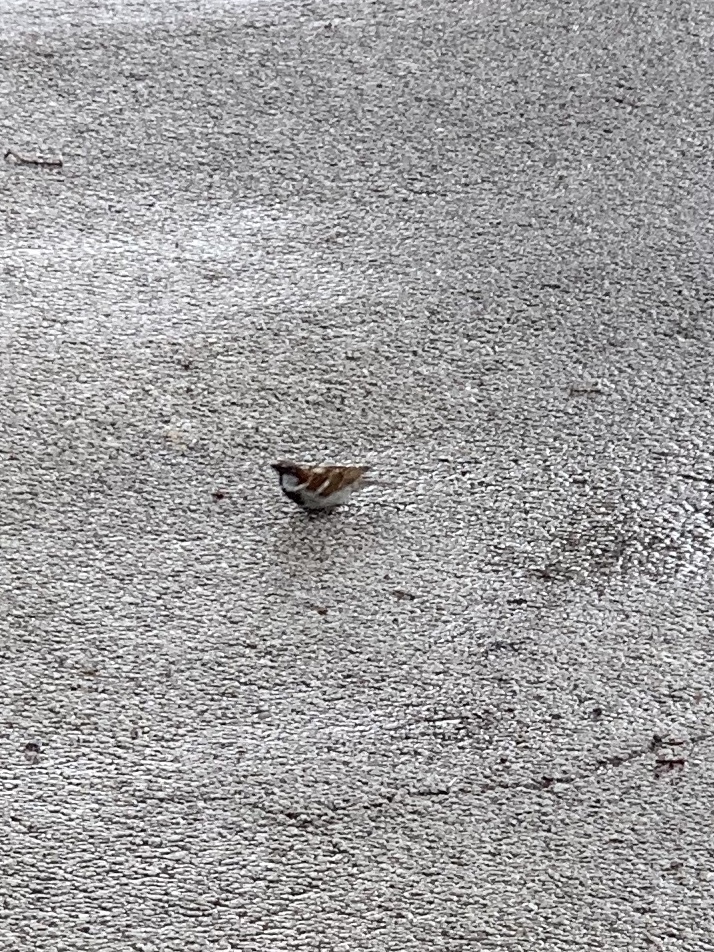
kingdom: Animalia
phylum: Chordata
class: Aves
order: Passeriformes
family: Passeridae
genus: Passer
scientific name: Passer domesticus
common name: House sparrow
